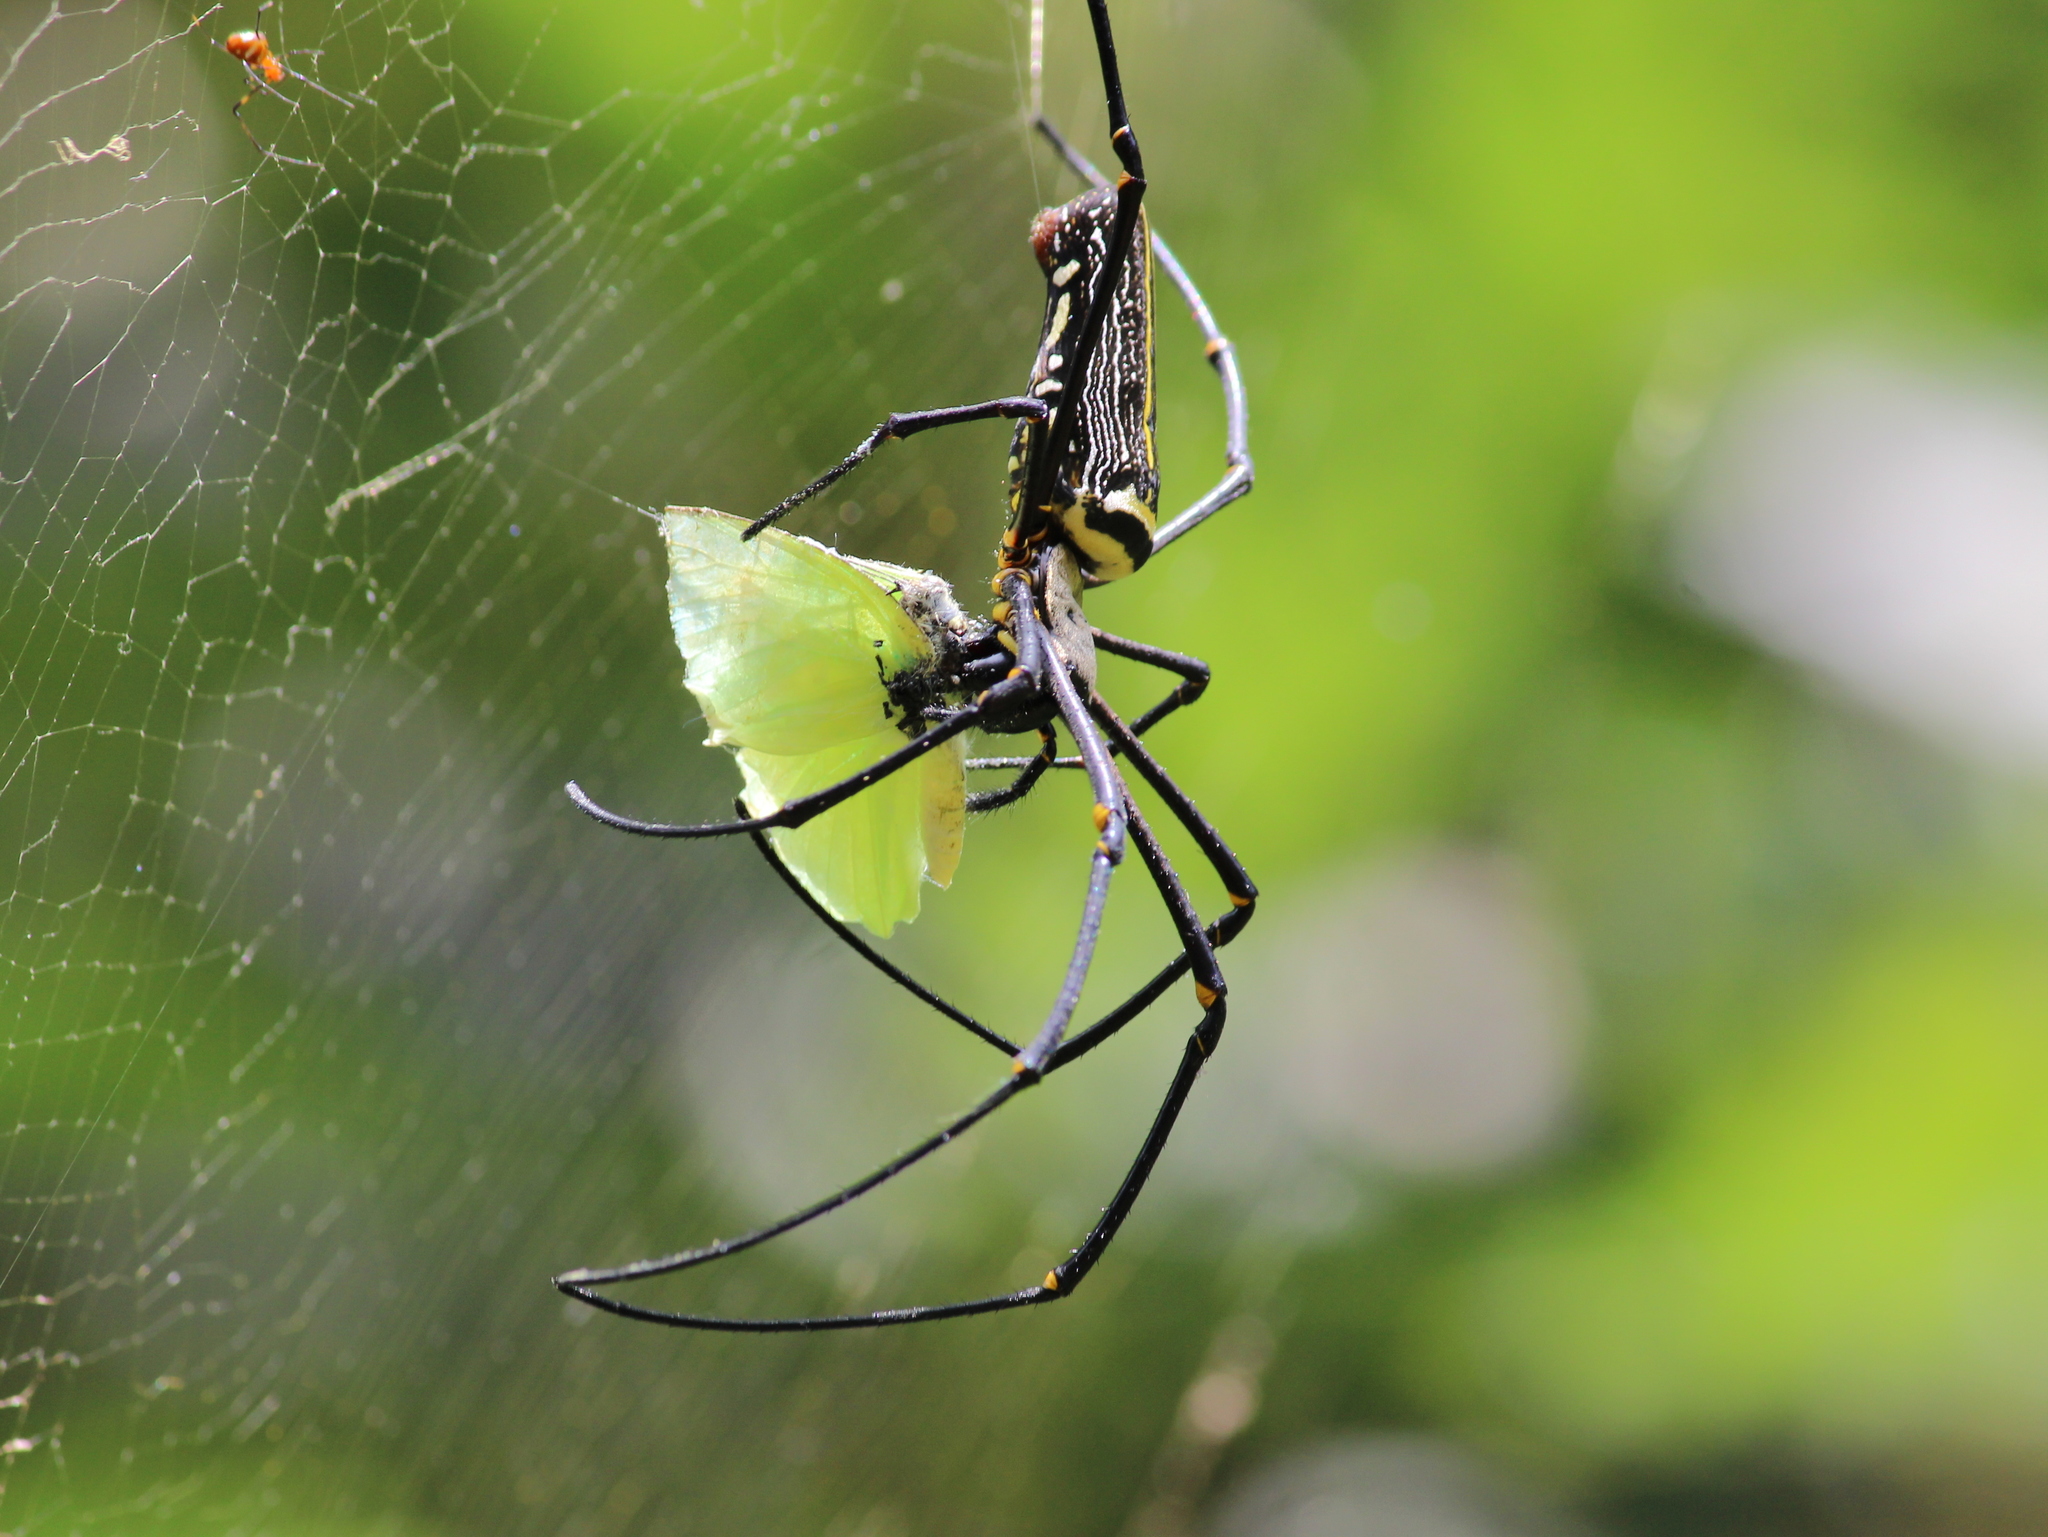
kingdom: Animalia
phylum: Arthropoda
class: Insecta
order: Lepidoptera
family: Pieridae
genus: Catopsilia
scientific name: Catopsilia pomona
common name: Common emigrant
